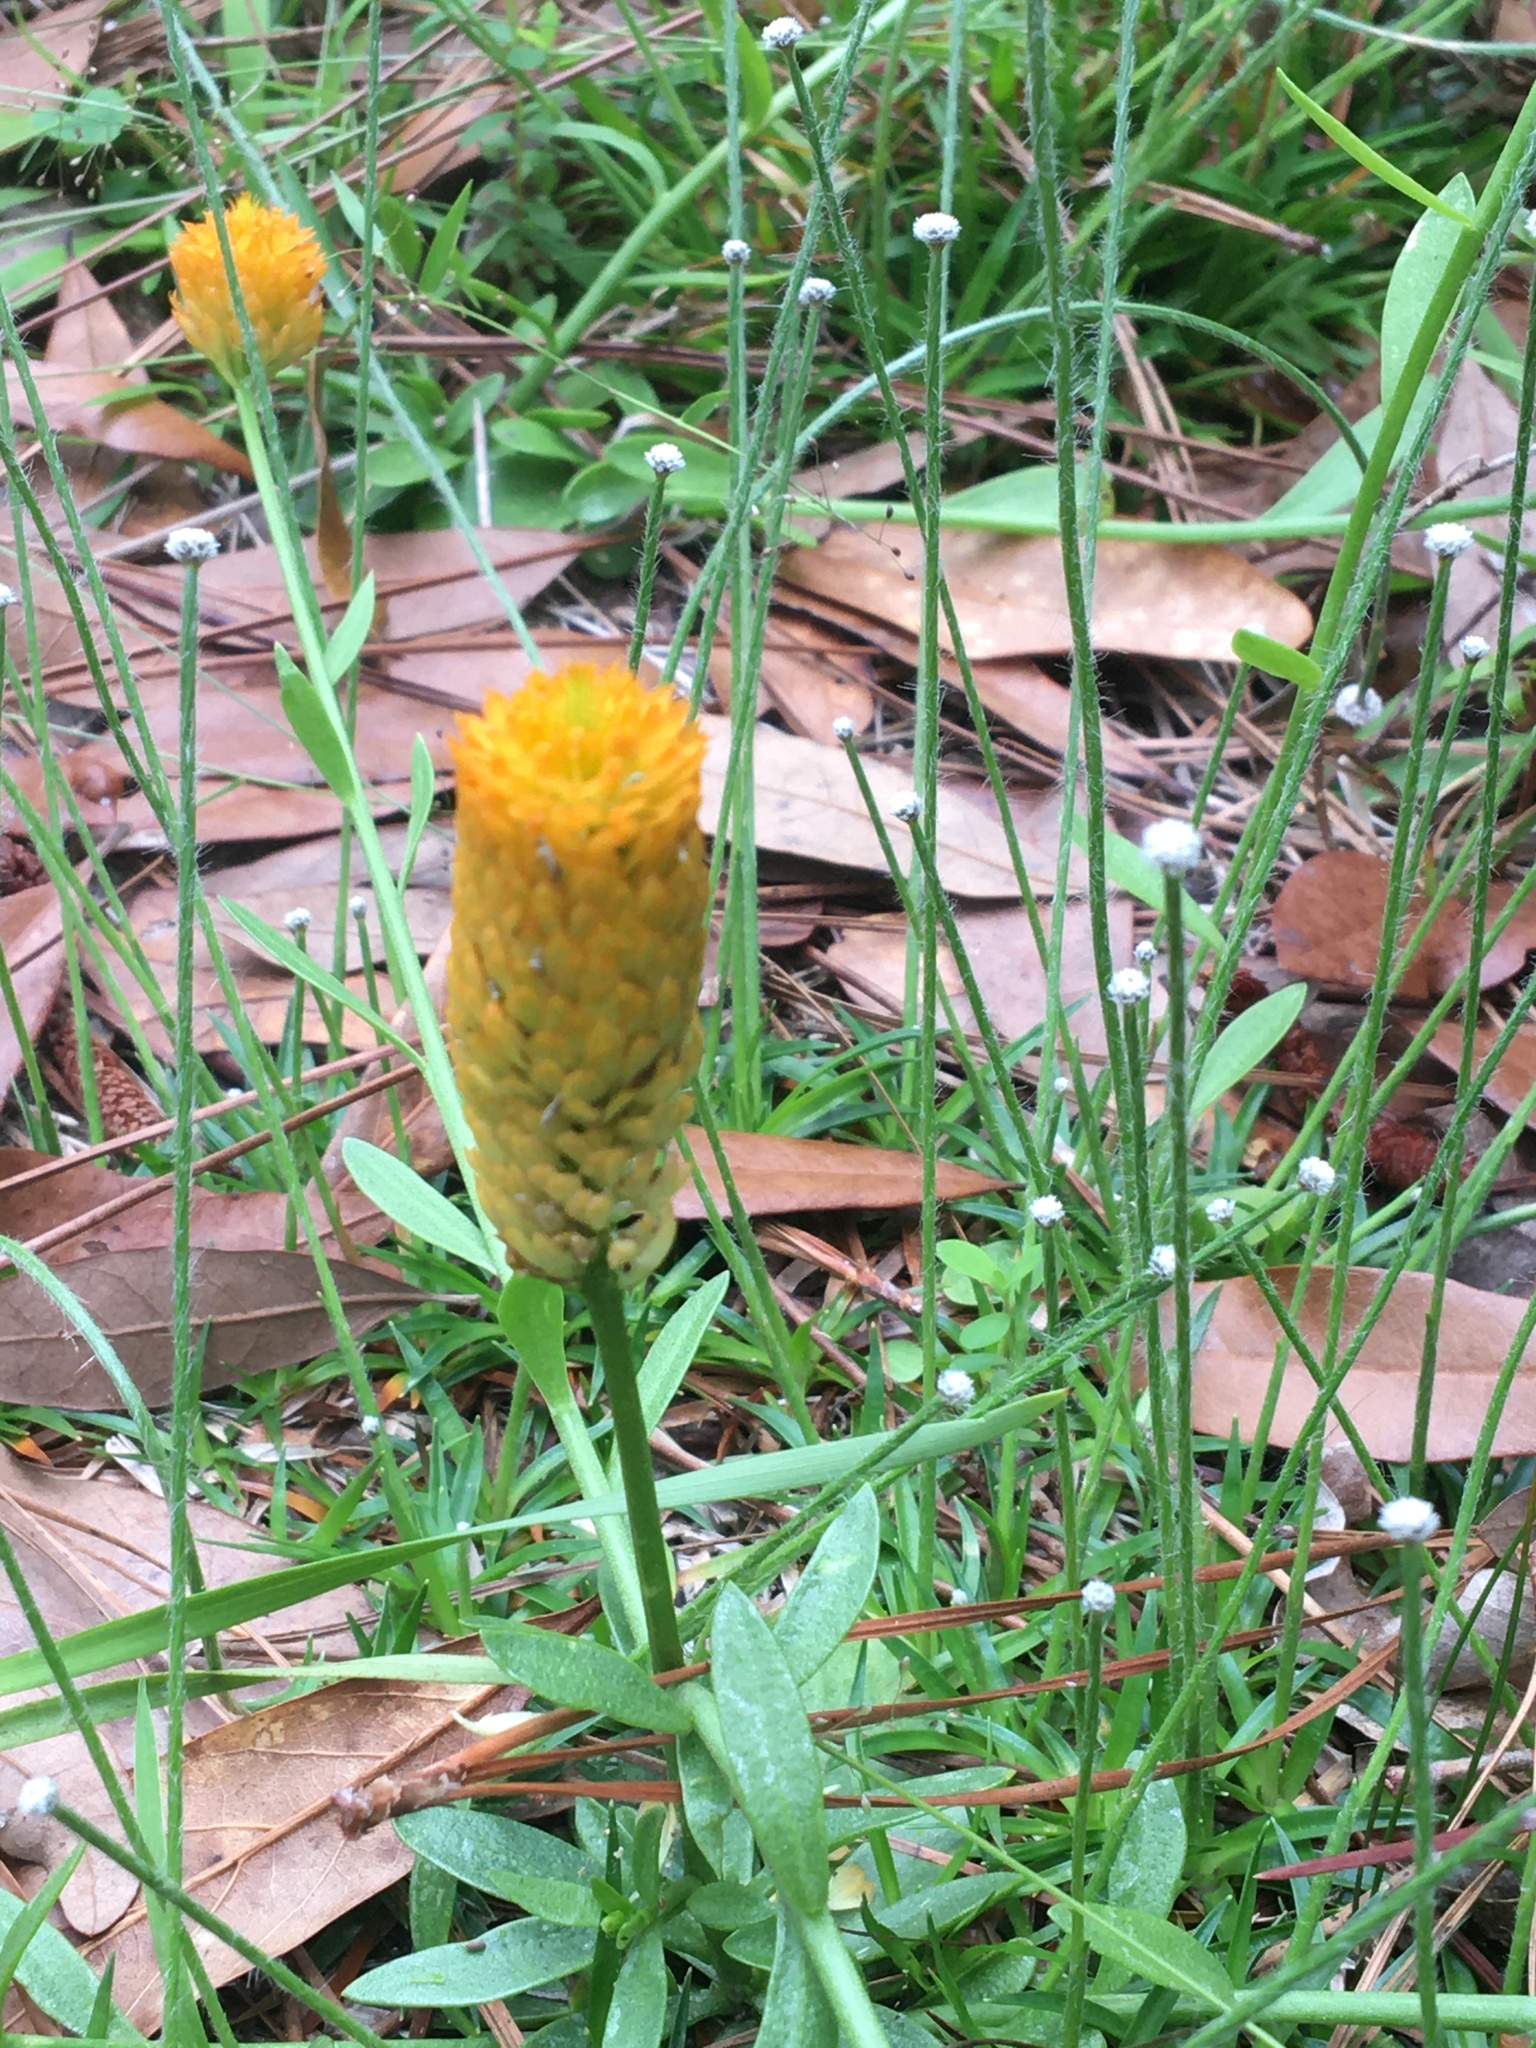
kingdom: Plantae
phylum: Tracheophyta
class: Magnoliopsida
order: Fabales
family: Polygalaceae
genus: Polygala
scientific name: Polygala lutea
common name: Orange milkwort
